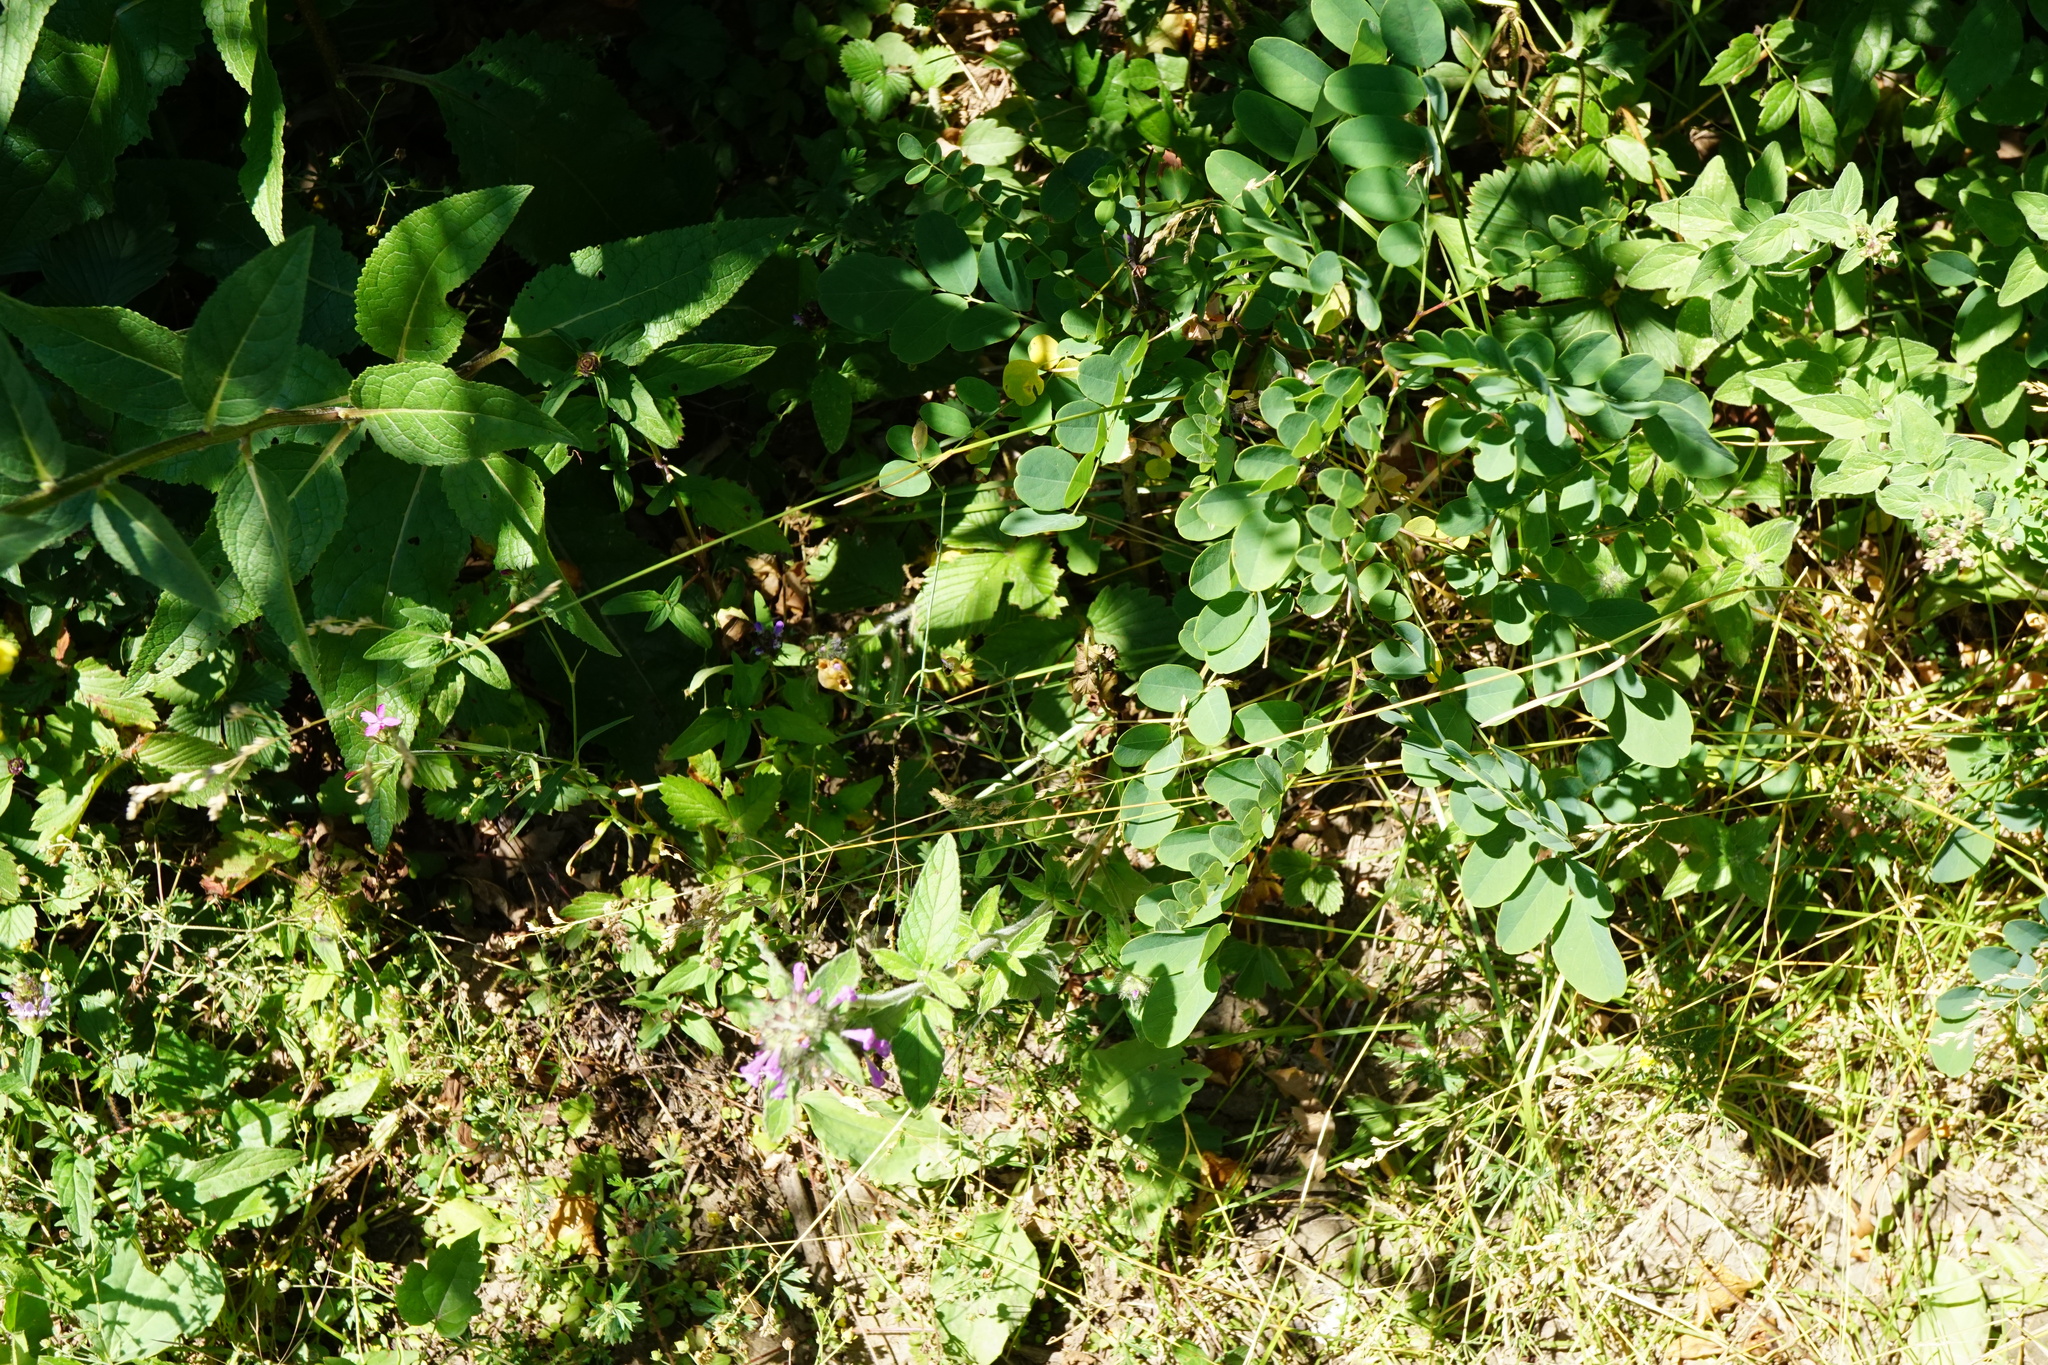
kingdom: Plantae
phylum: Tracheophyta
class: Magnoliopsida
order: Caryophyllales
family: Caryophyllaceae
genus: Petrorhagia
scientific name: Petrorhagia prolifera
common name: Proliferous pink
